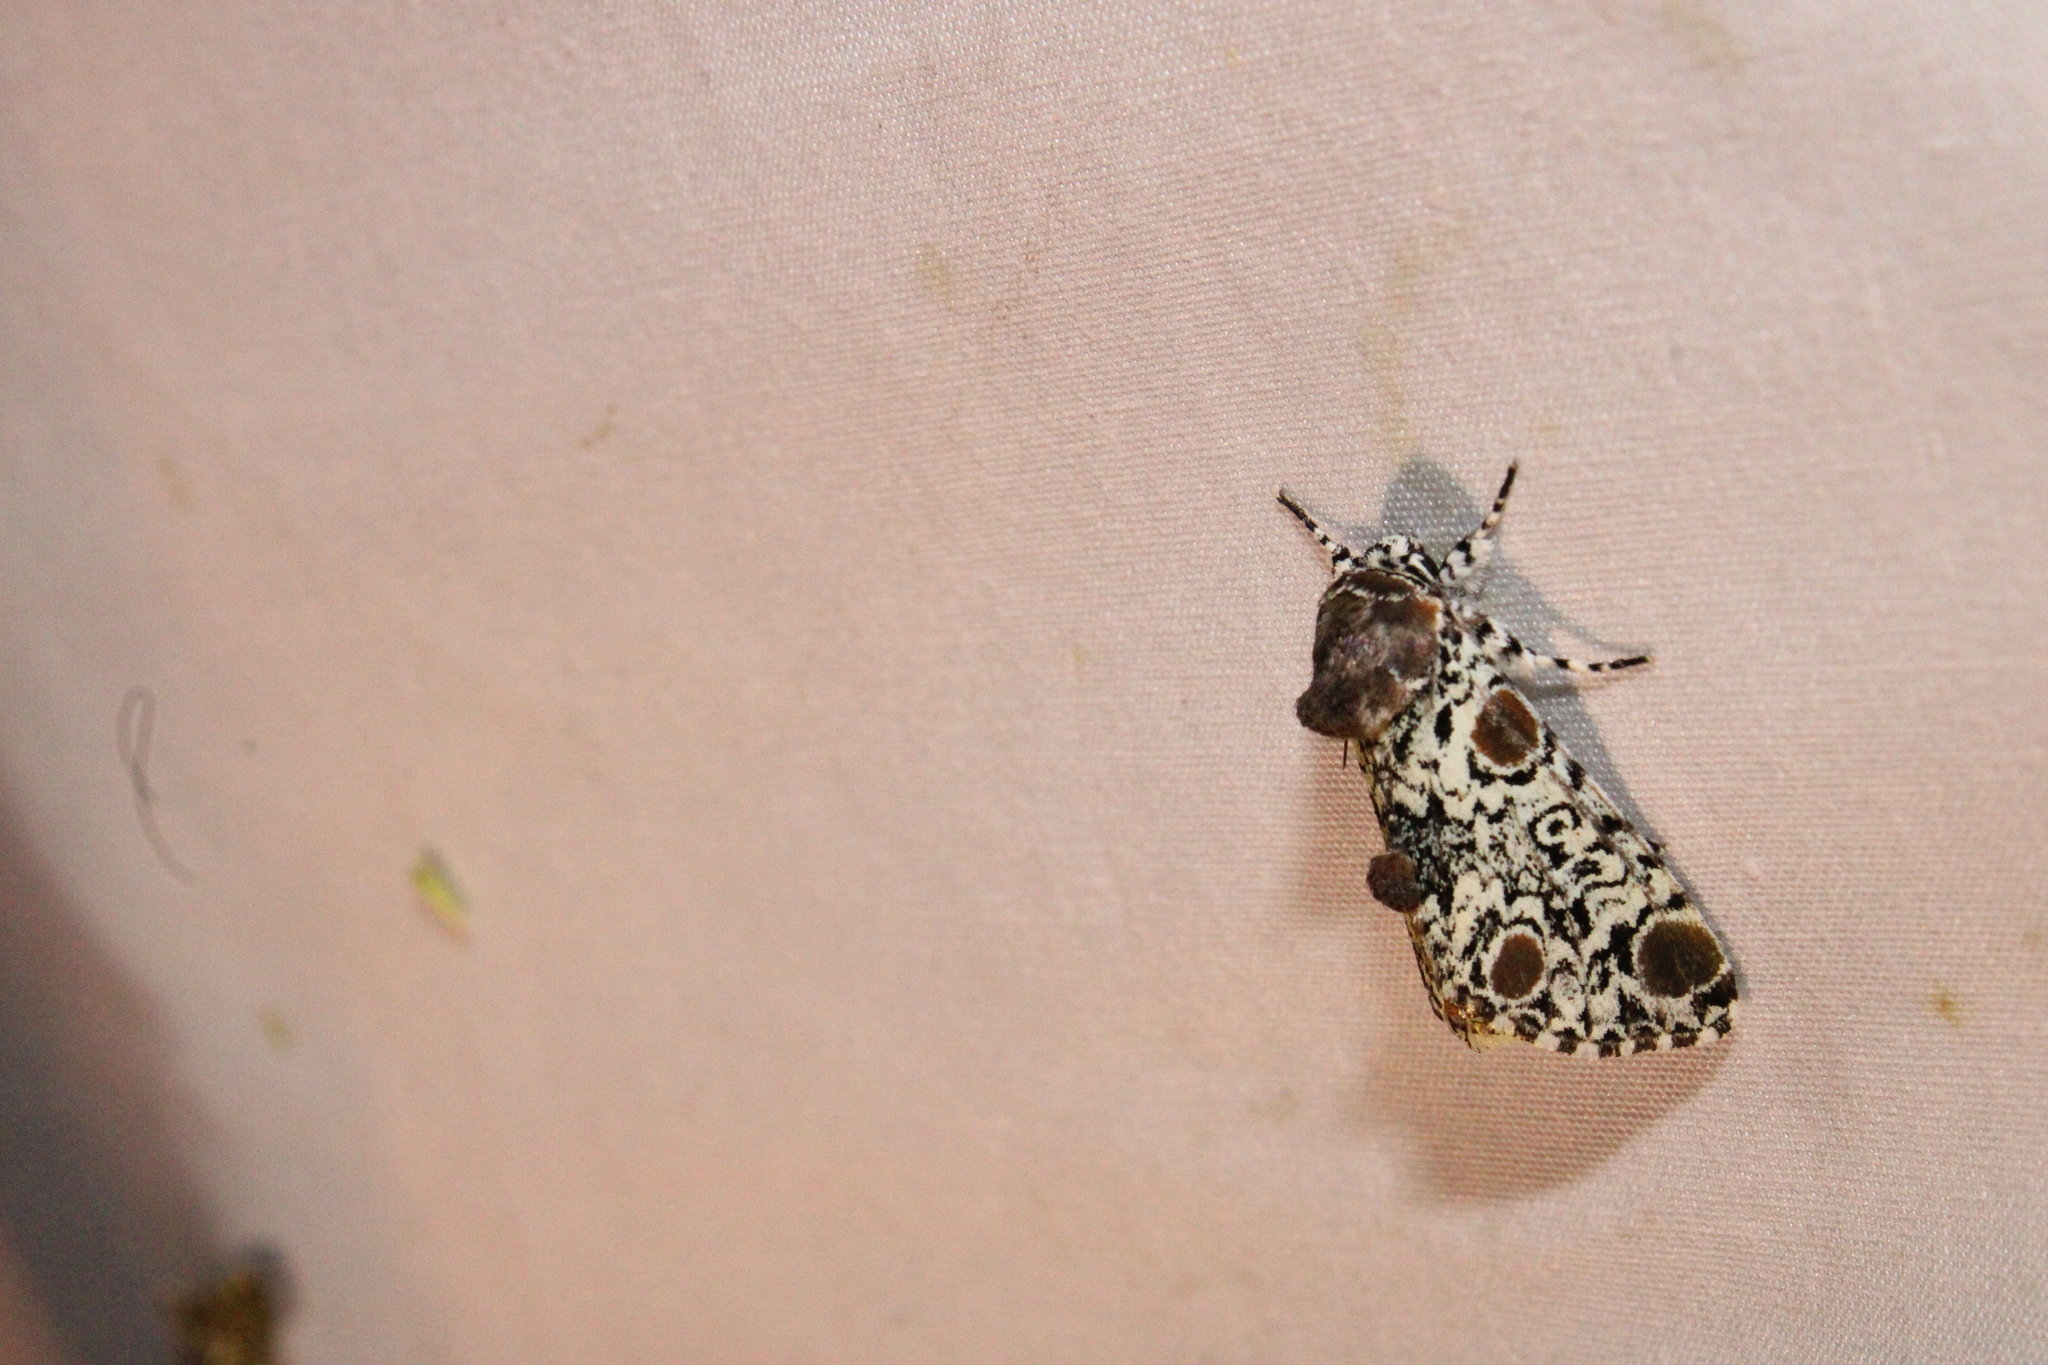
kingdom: Animalia
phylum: Arthropoda
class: Insecta
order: Lepidoptera
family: Noctuidae
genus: Harrisimemna
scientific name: Harrisimemna trisignata
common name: Harris threespot
